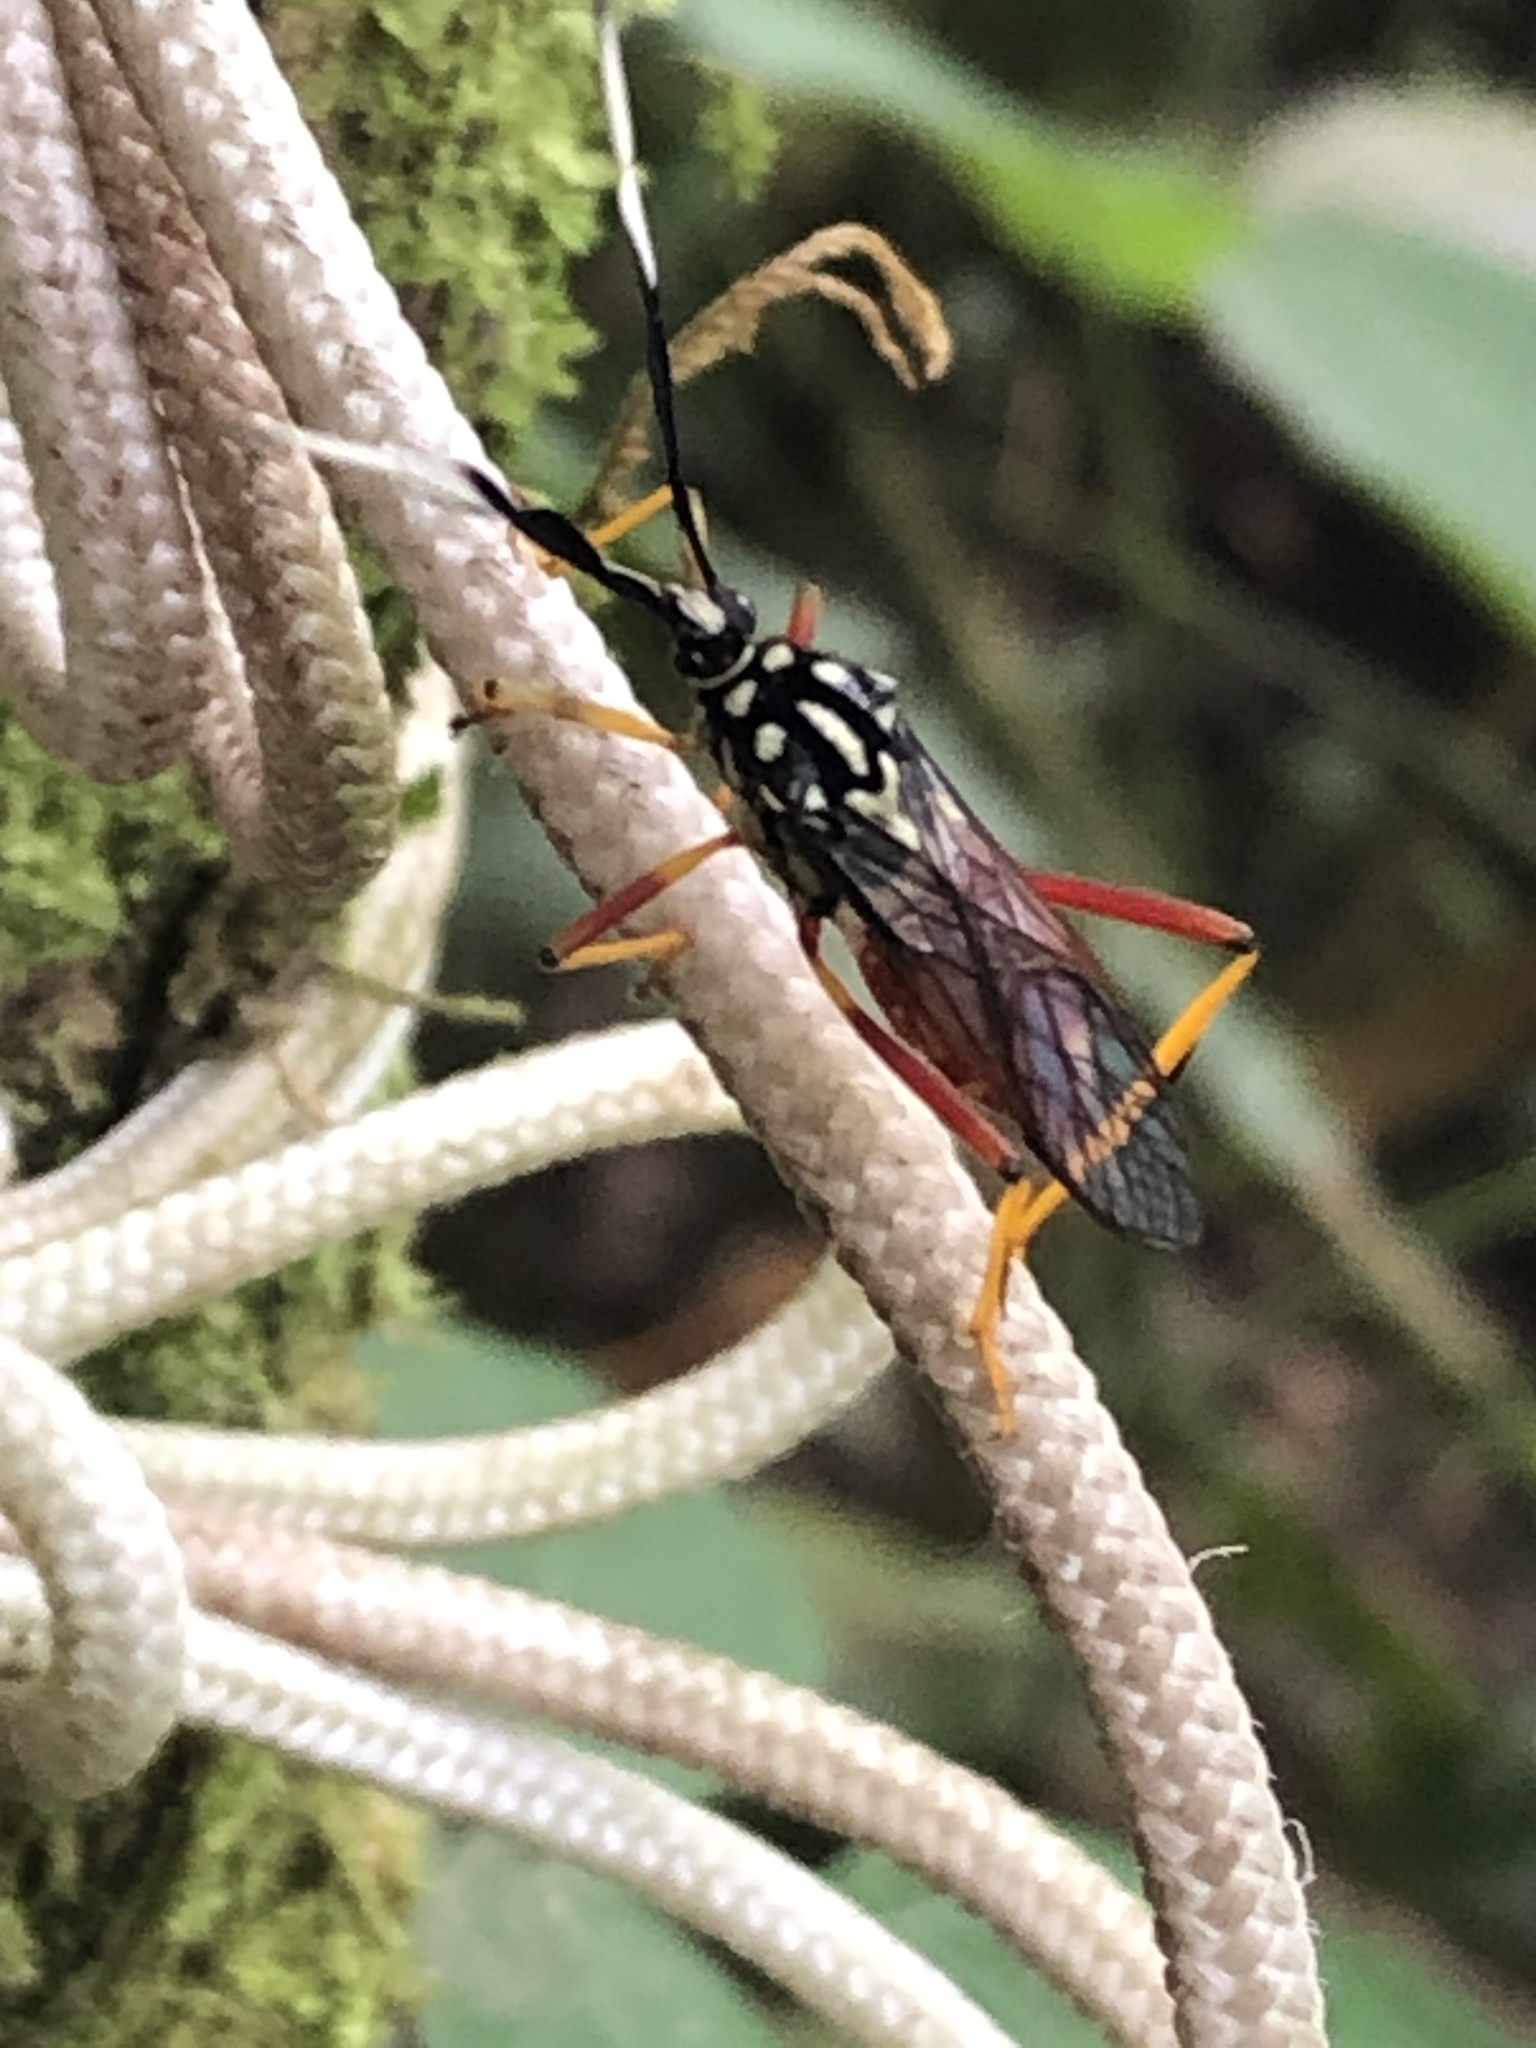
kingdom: Animalia
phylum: Arthropoda
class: Insecta
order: Hemiptera
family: Coreidae
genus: Holhymenia
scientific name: Holhymenia clavigera
